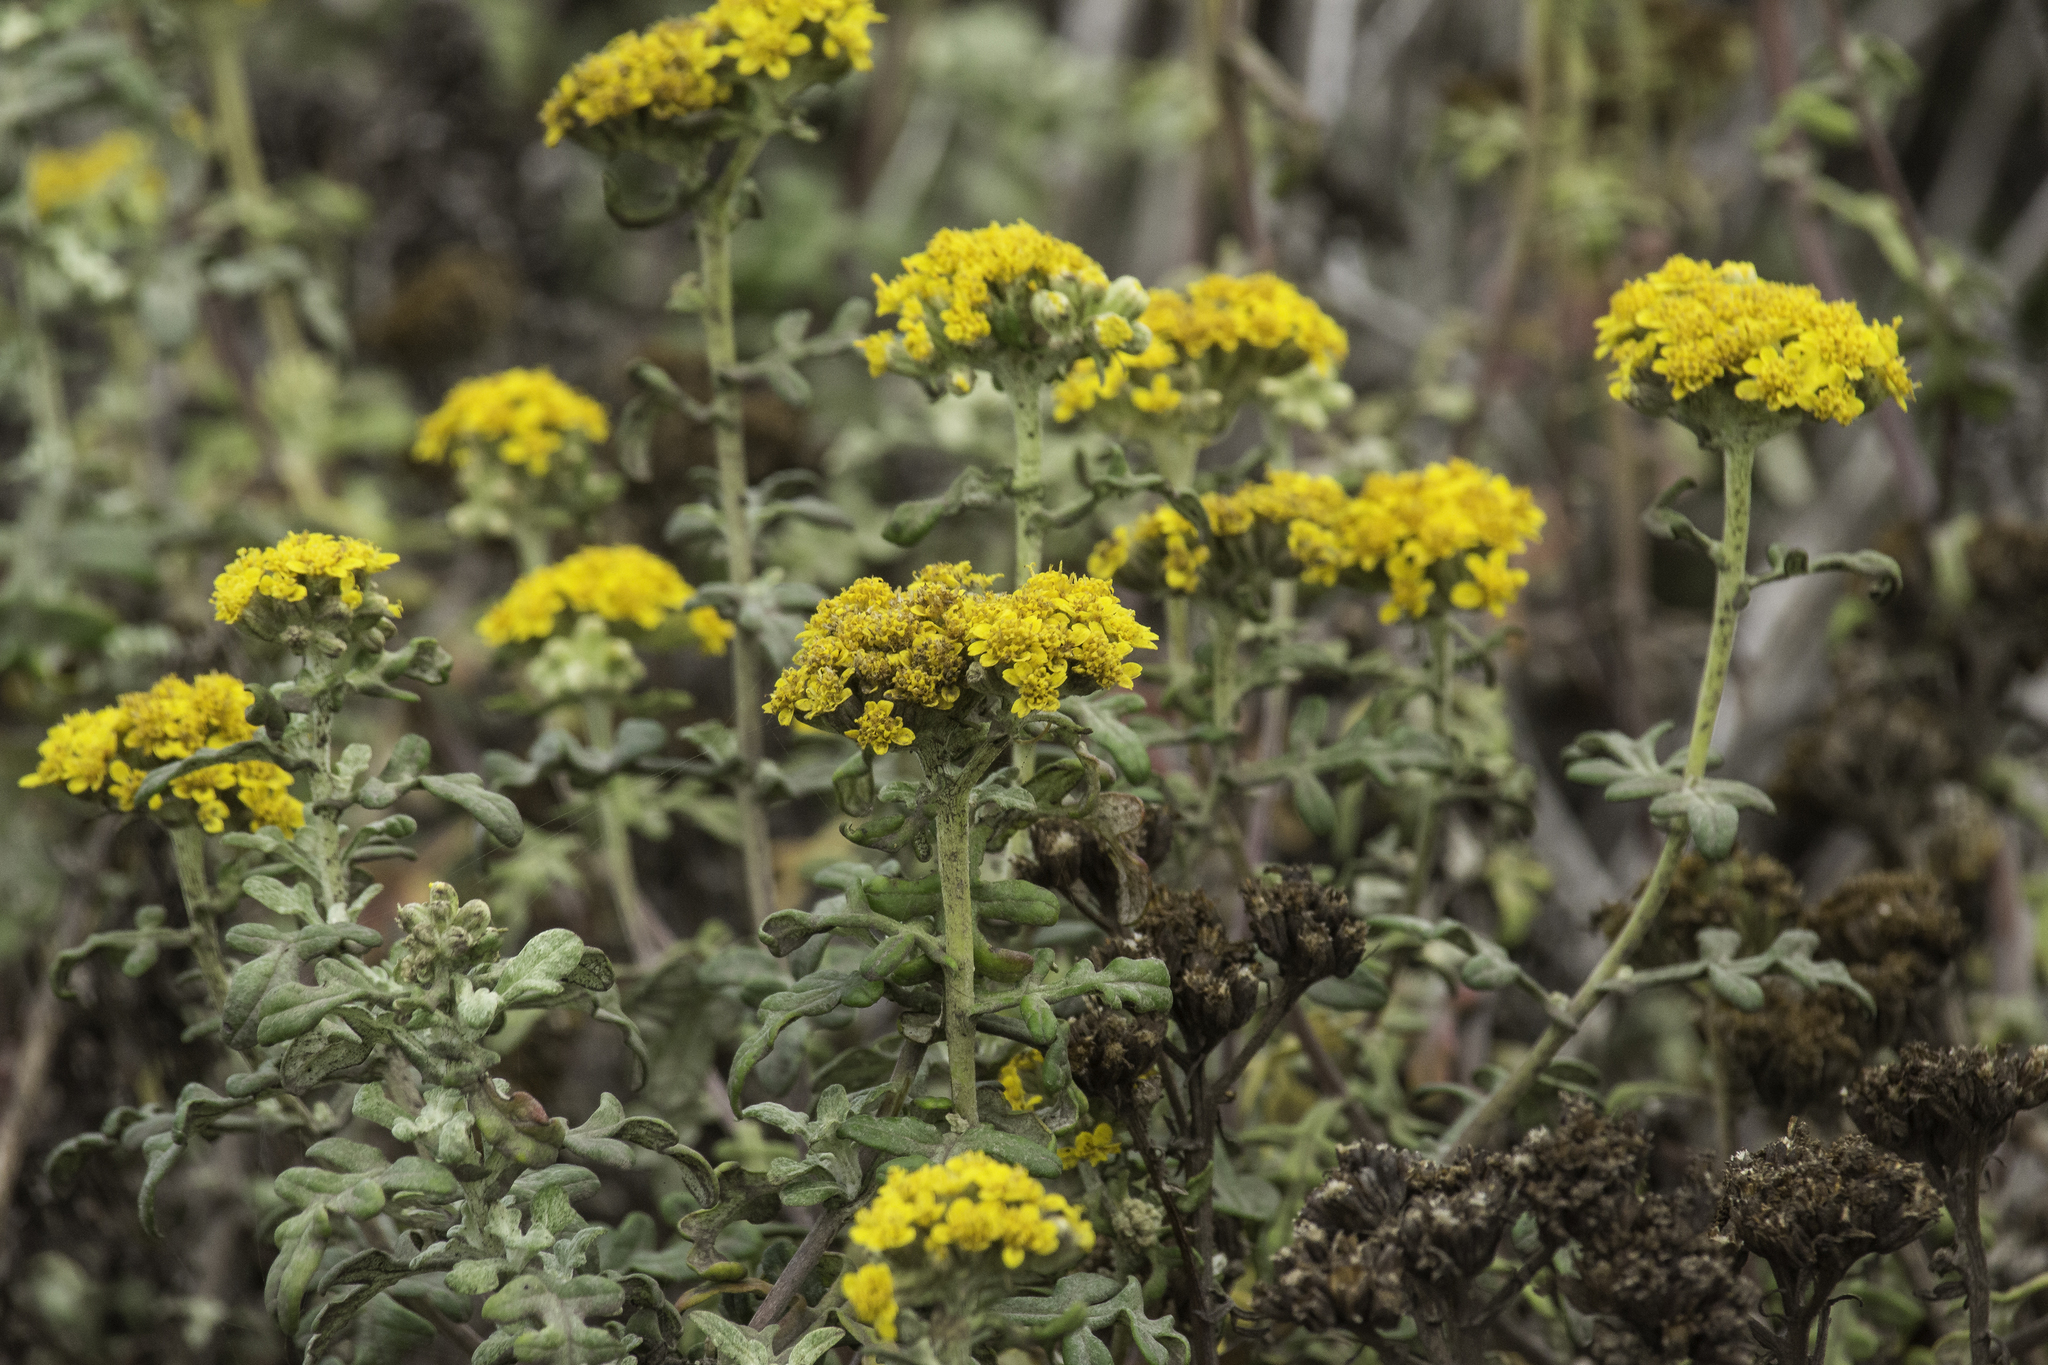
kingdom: Plantae
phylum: Tracheophyta
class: Magnoliopsida
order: Asterales
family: Asteraceae
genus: Eriophyllum
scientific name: Eriophyllum staechadifolium
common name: Lizardtail
